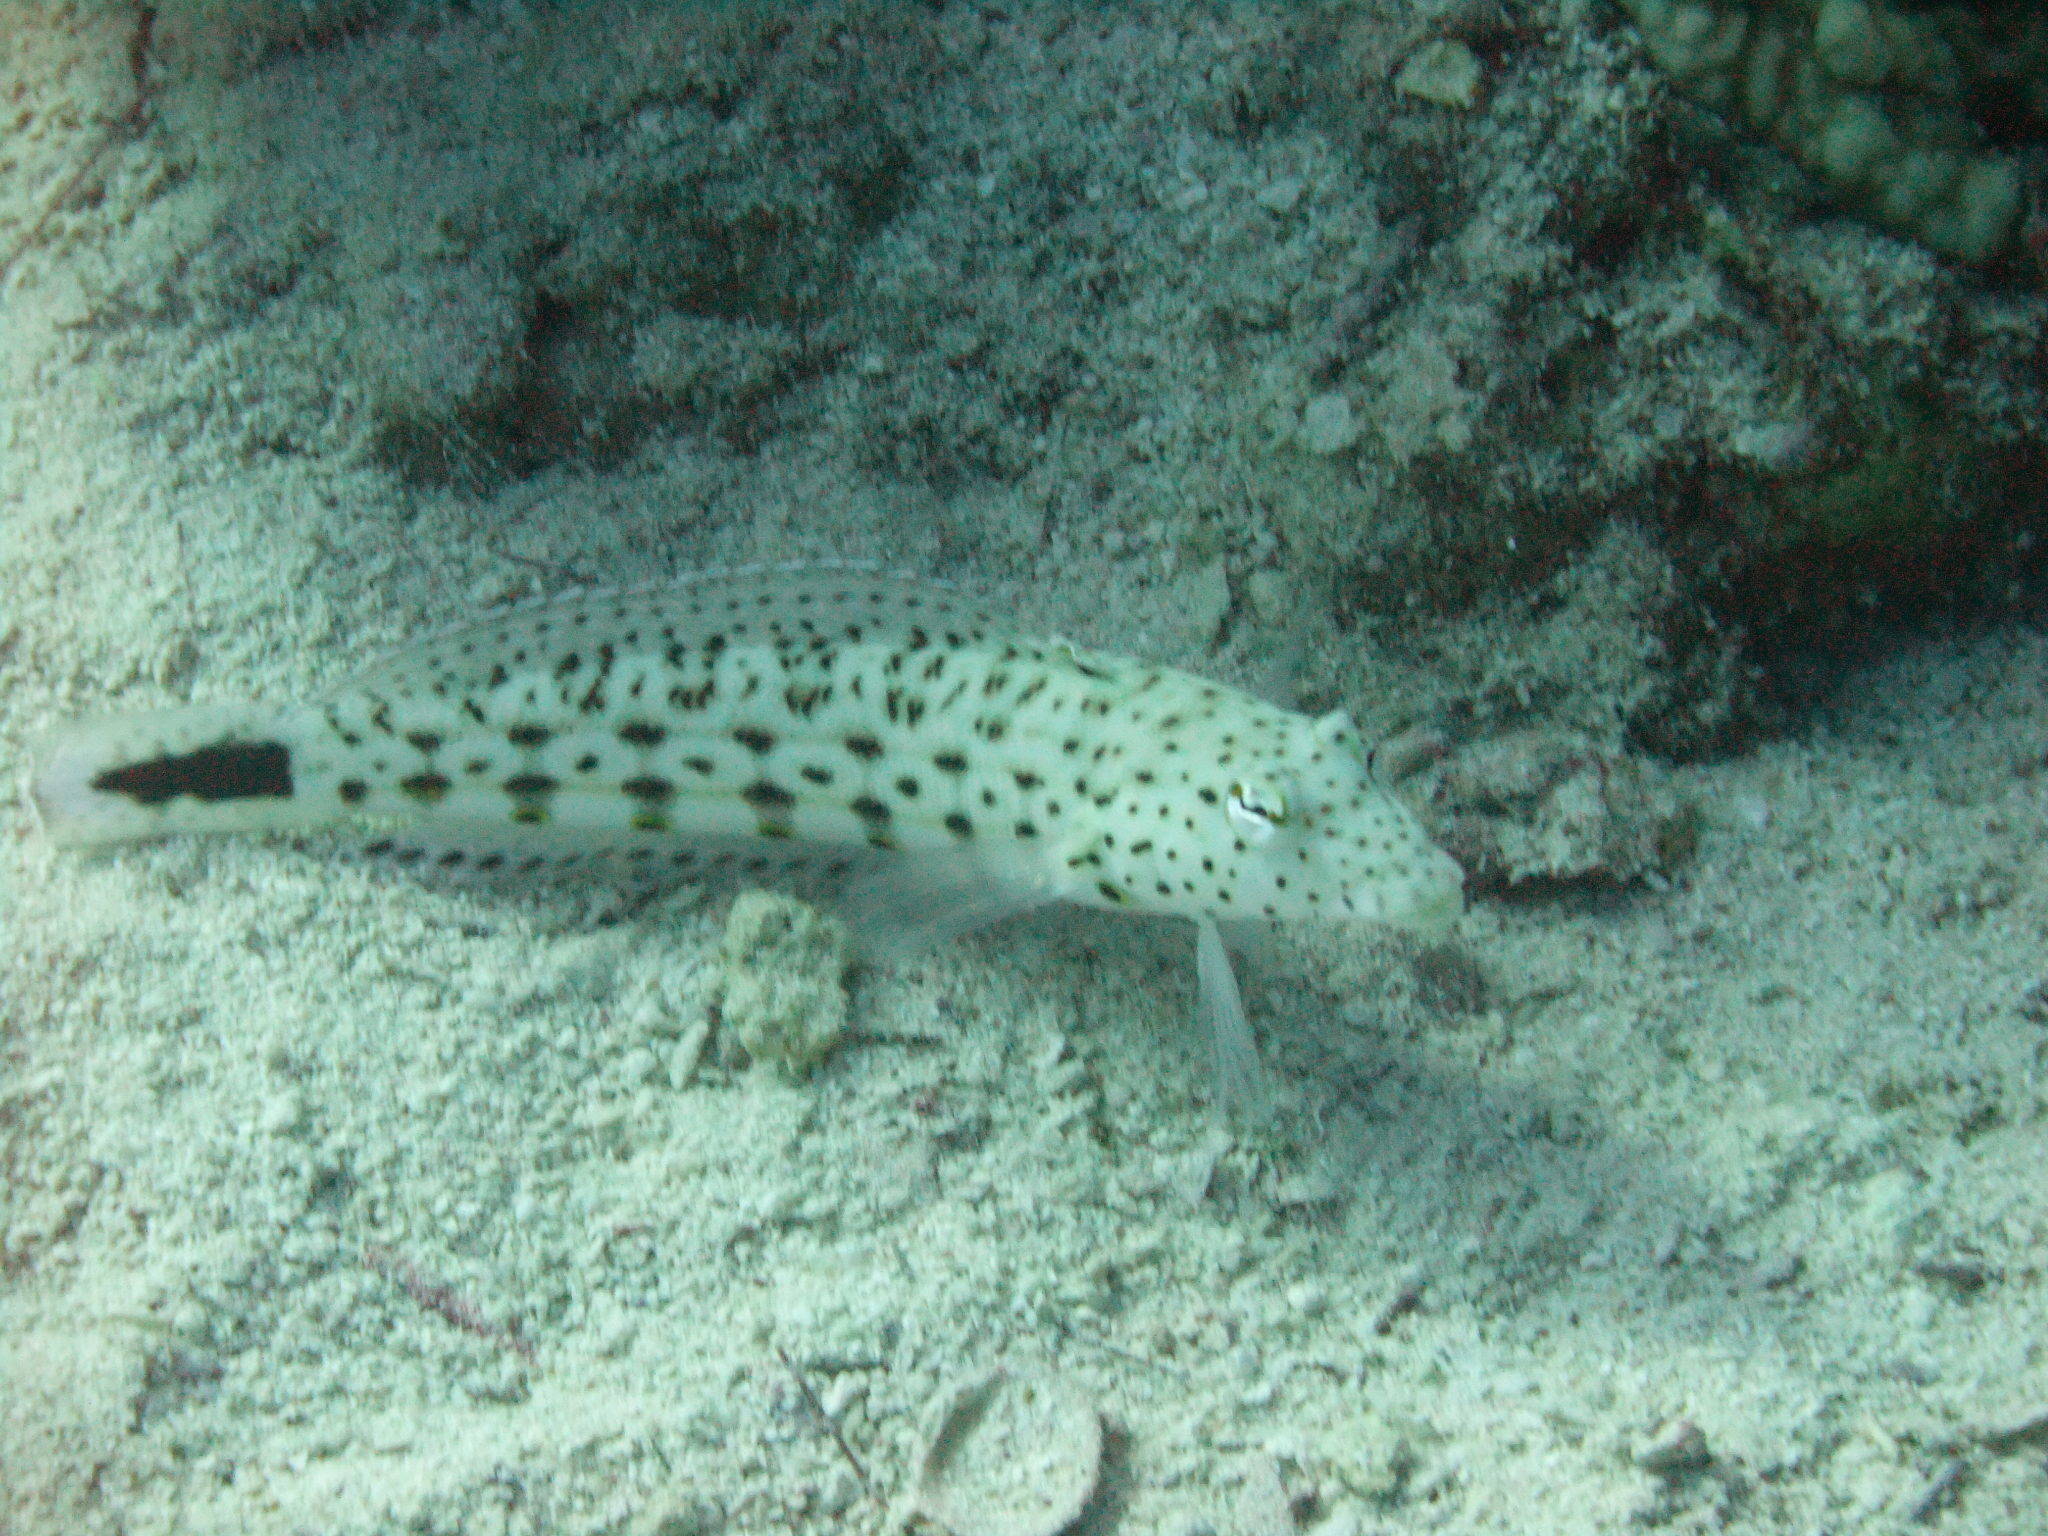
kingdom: Animalia
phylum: Chordata
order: Perciformes
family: Pinguipedidae
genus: Parapercis
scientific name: Parapercis hexophtalma
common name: Speckled sandperch
